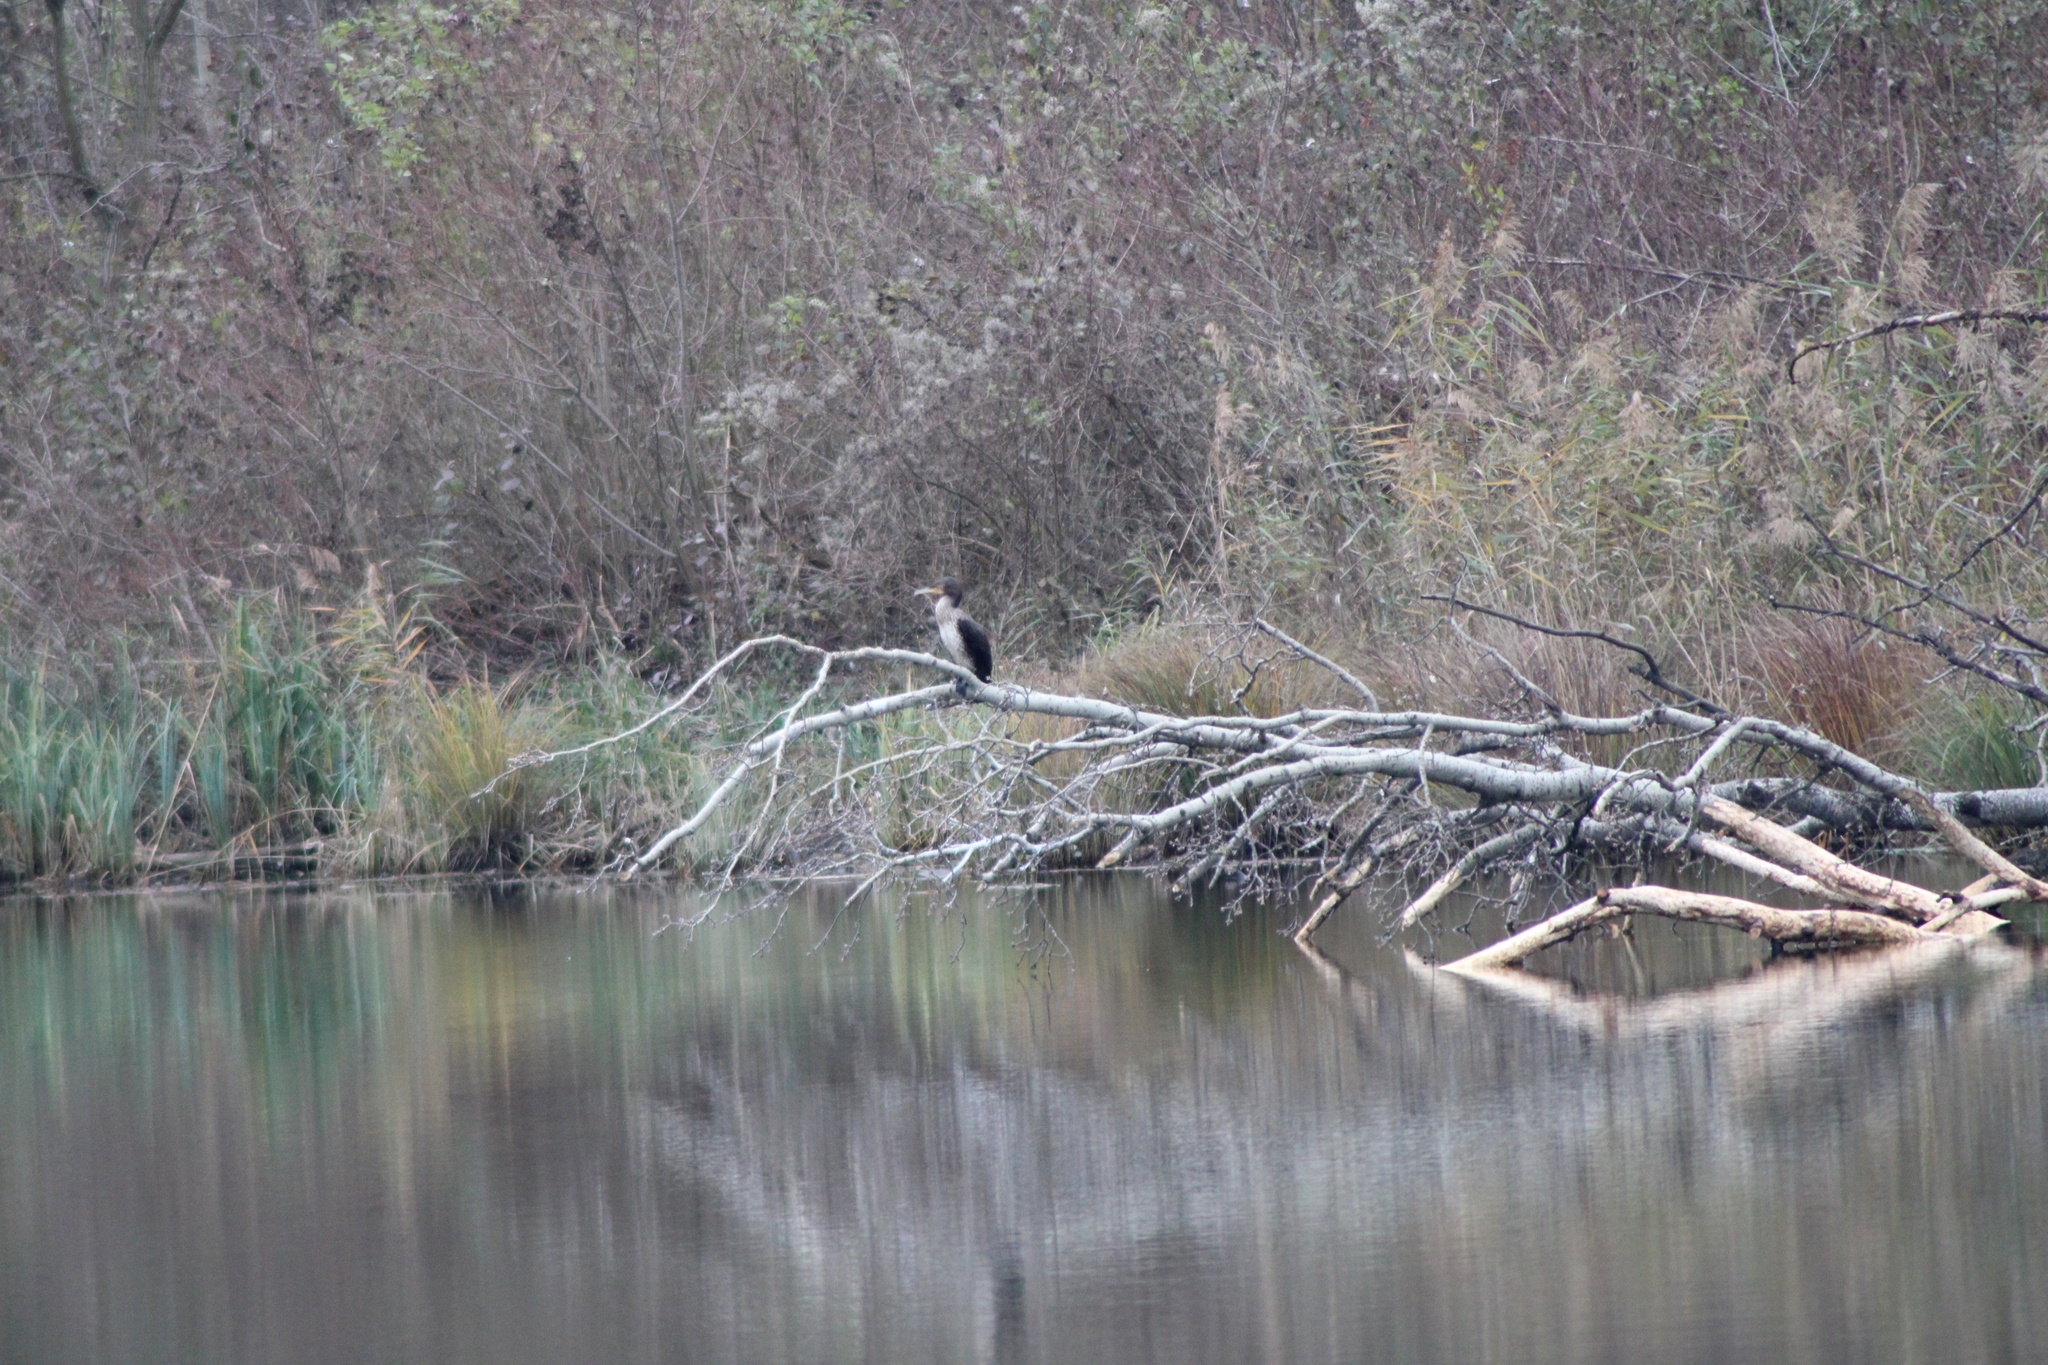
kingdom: Animalia
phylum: Chordata
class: Aves
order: Suliformes
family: Phalacrocoracidae
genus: Phalacrocorax
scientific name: Phalacrocorax carbo
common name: Great cormorant
